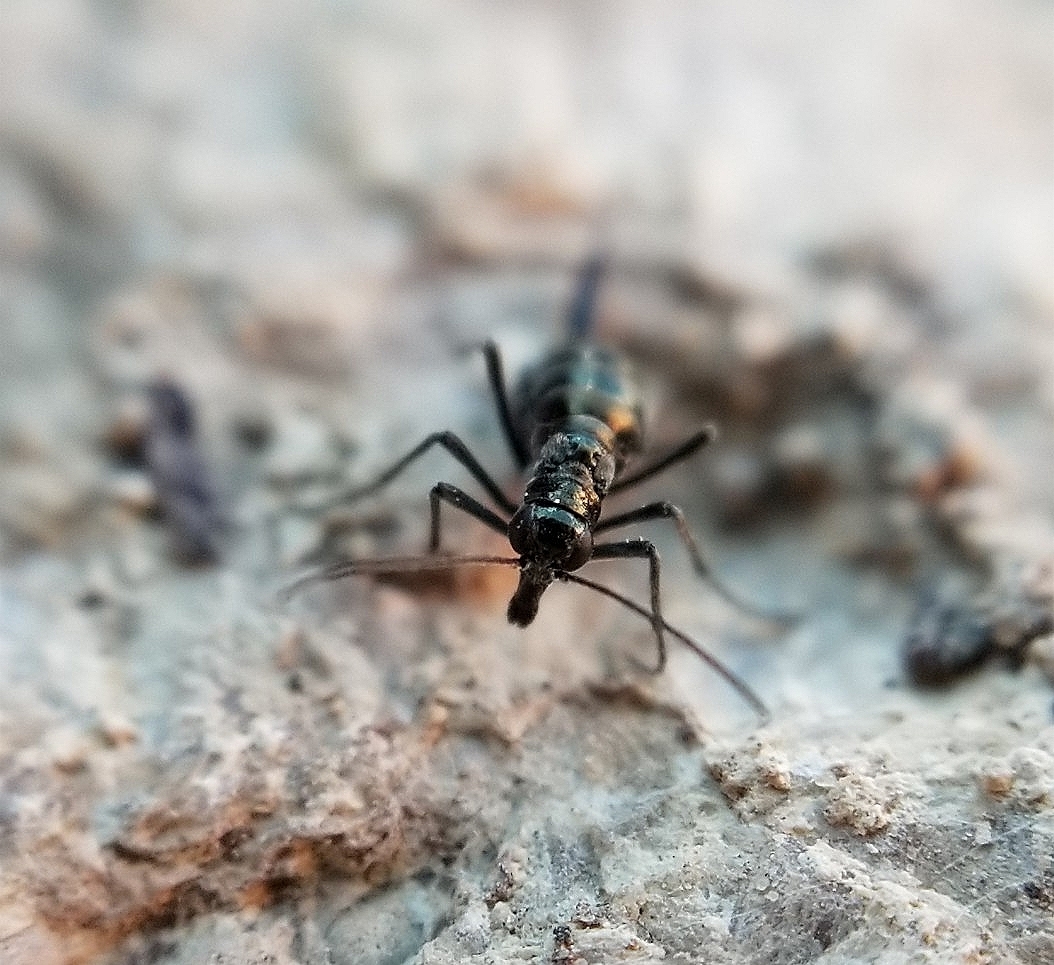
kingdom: Animalia
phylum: Arthropoda
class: Insecta
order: Mecoptera
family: Boreidae
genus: Boreus
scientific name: Boreus coloradensis
